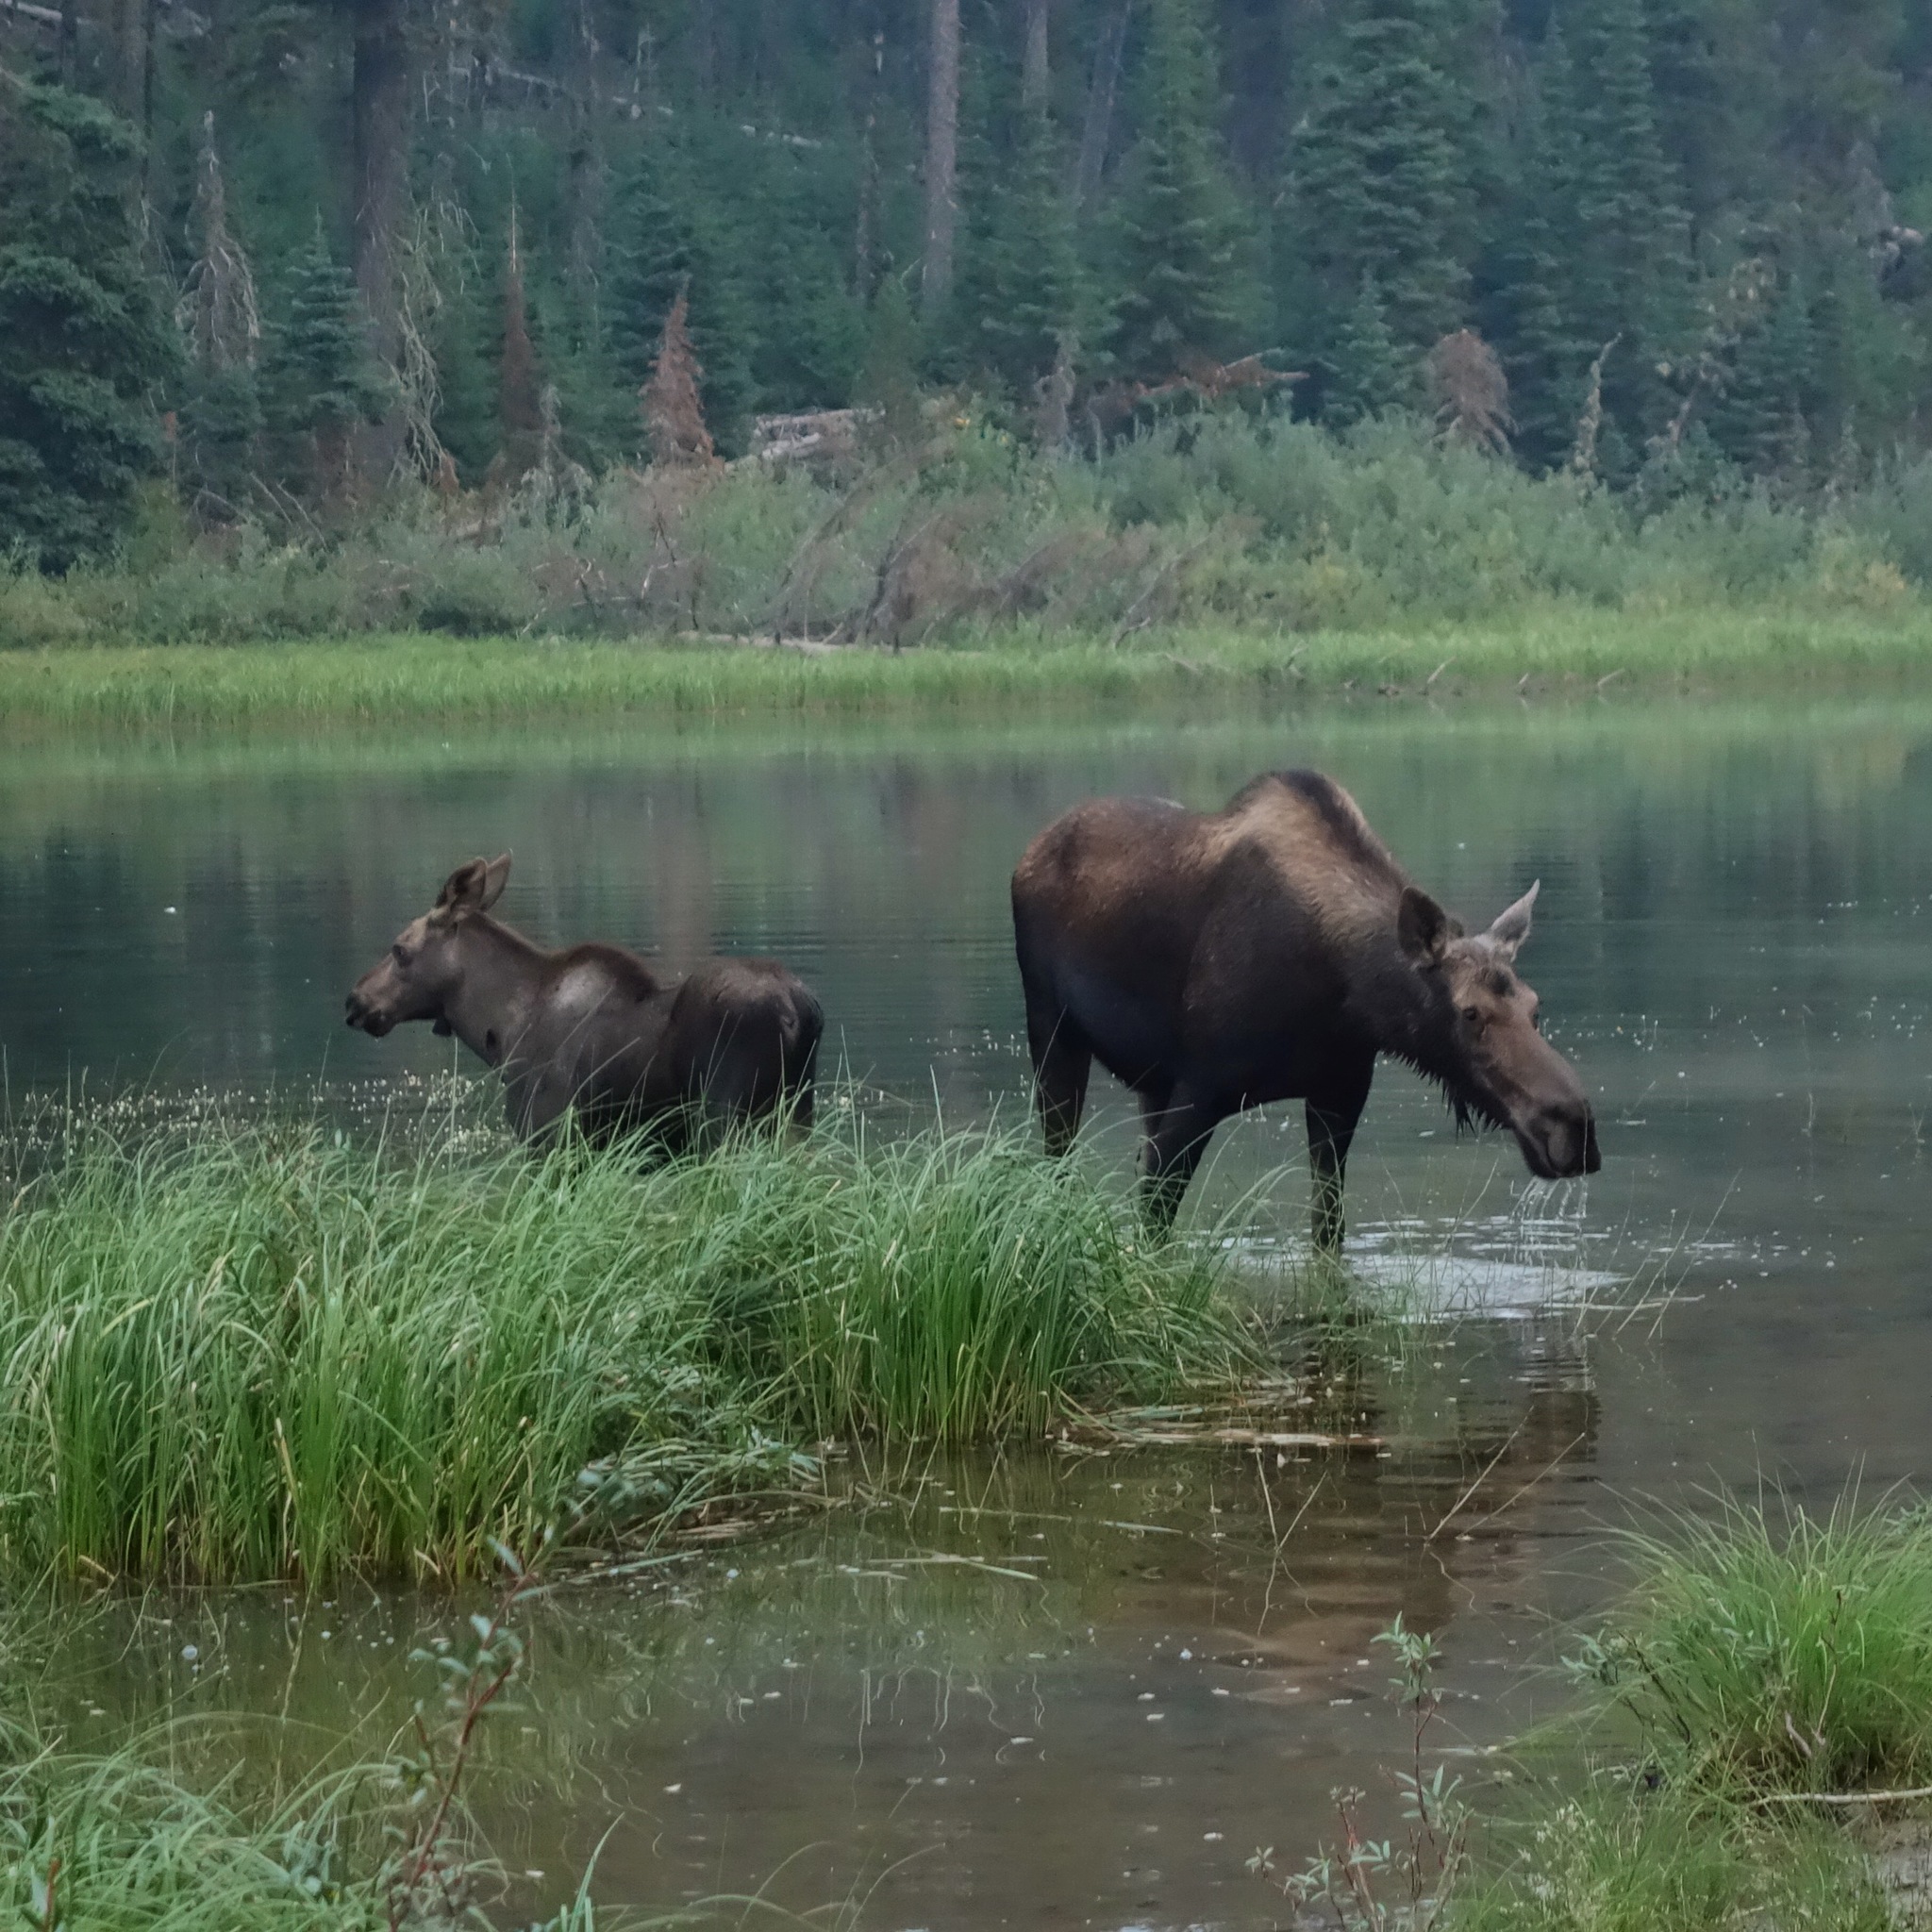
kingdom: Animalia
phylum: Chordata
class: Mammalia
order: Artiodactyla
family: Cervidae
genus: Alces
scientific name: Alces alces
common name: Moose
